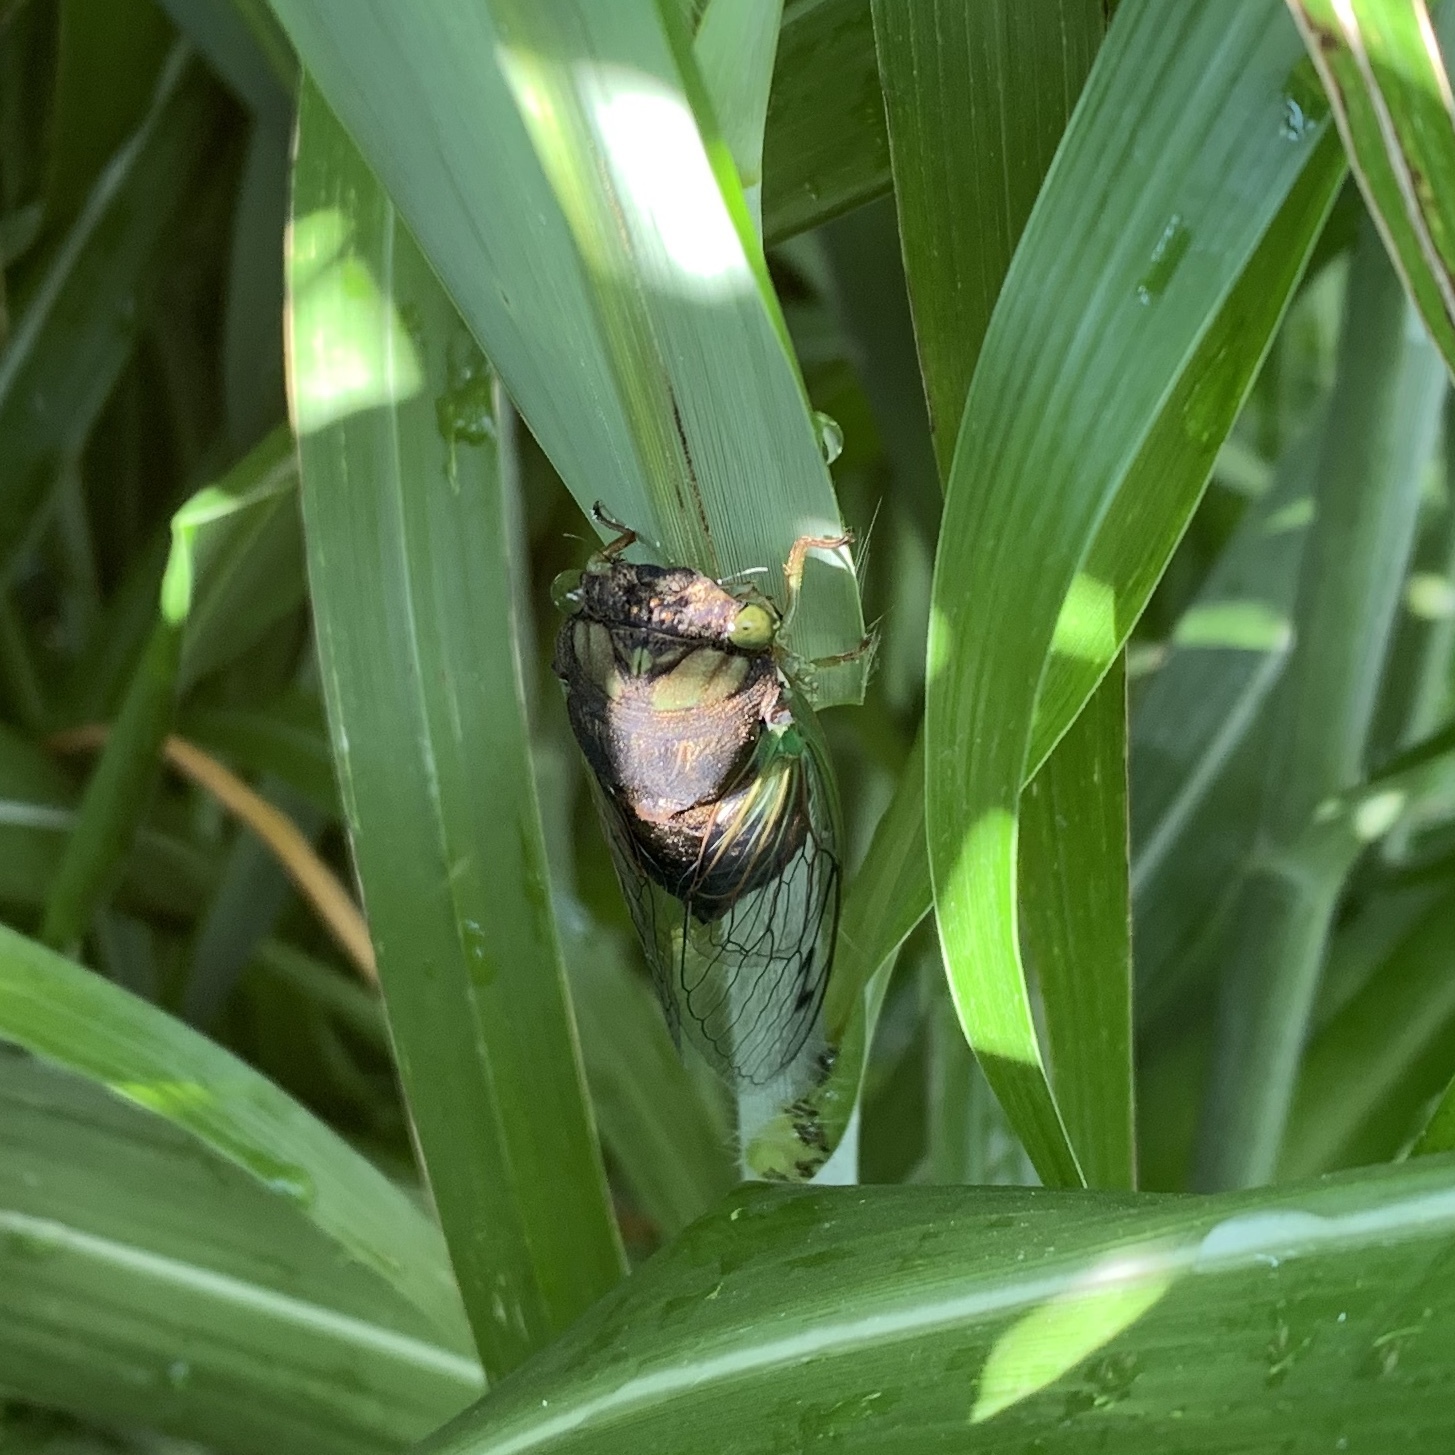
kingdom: Animalia
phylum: Arthropoda
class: Insecta
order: Hemiptera
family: Cicadidae
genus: Neotibicen
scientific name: Neotibicen tibicen
